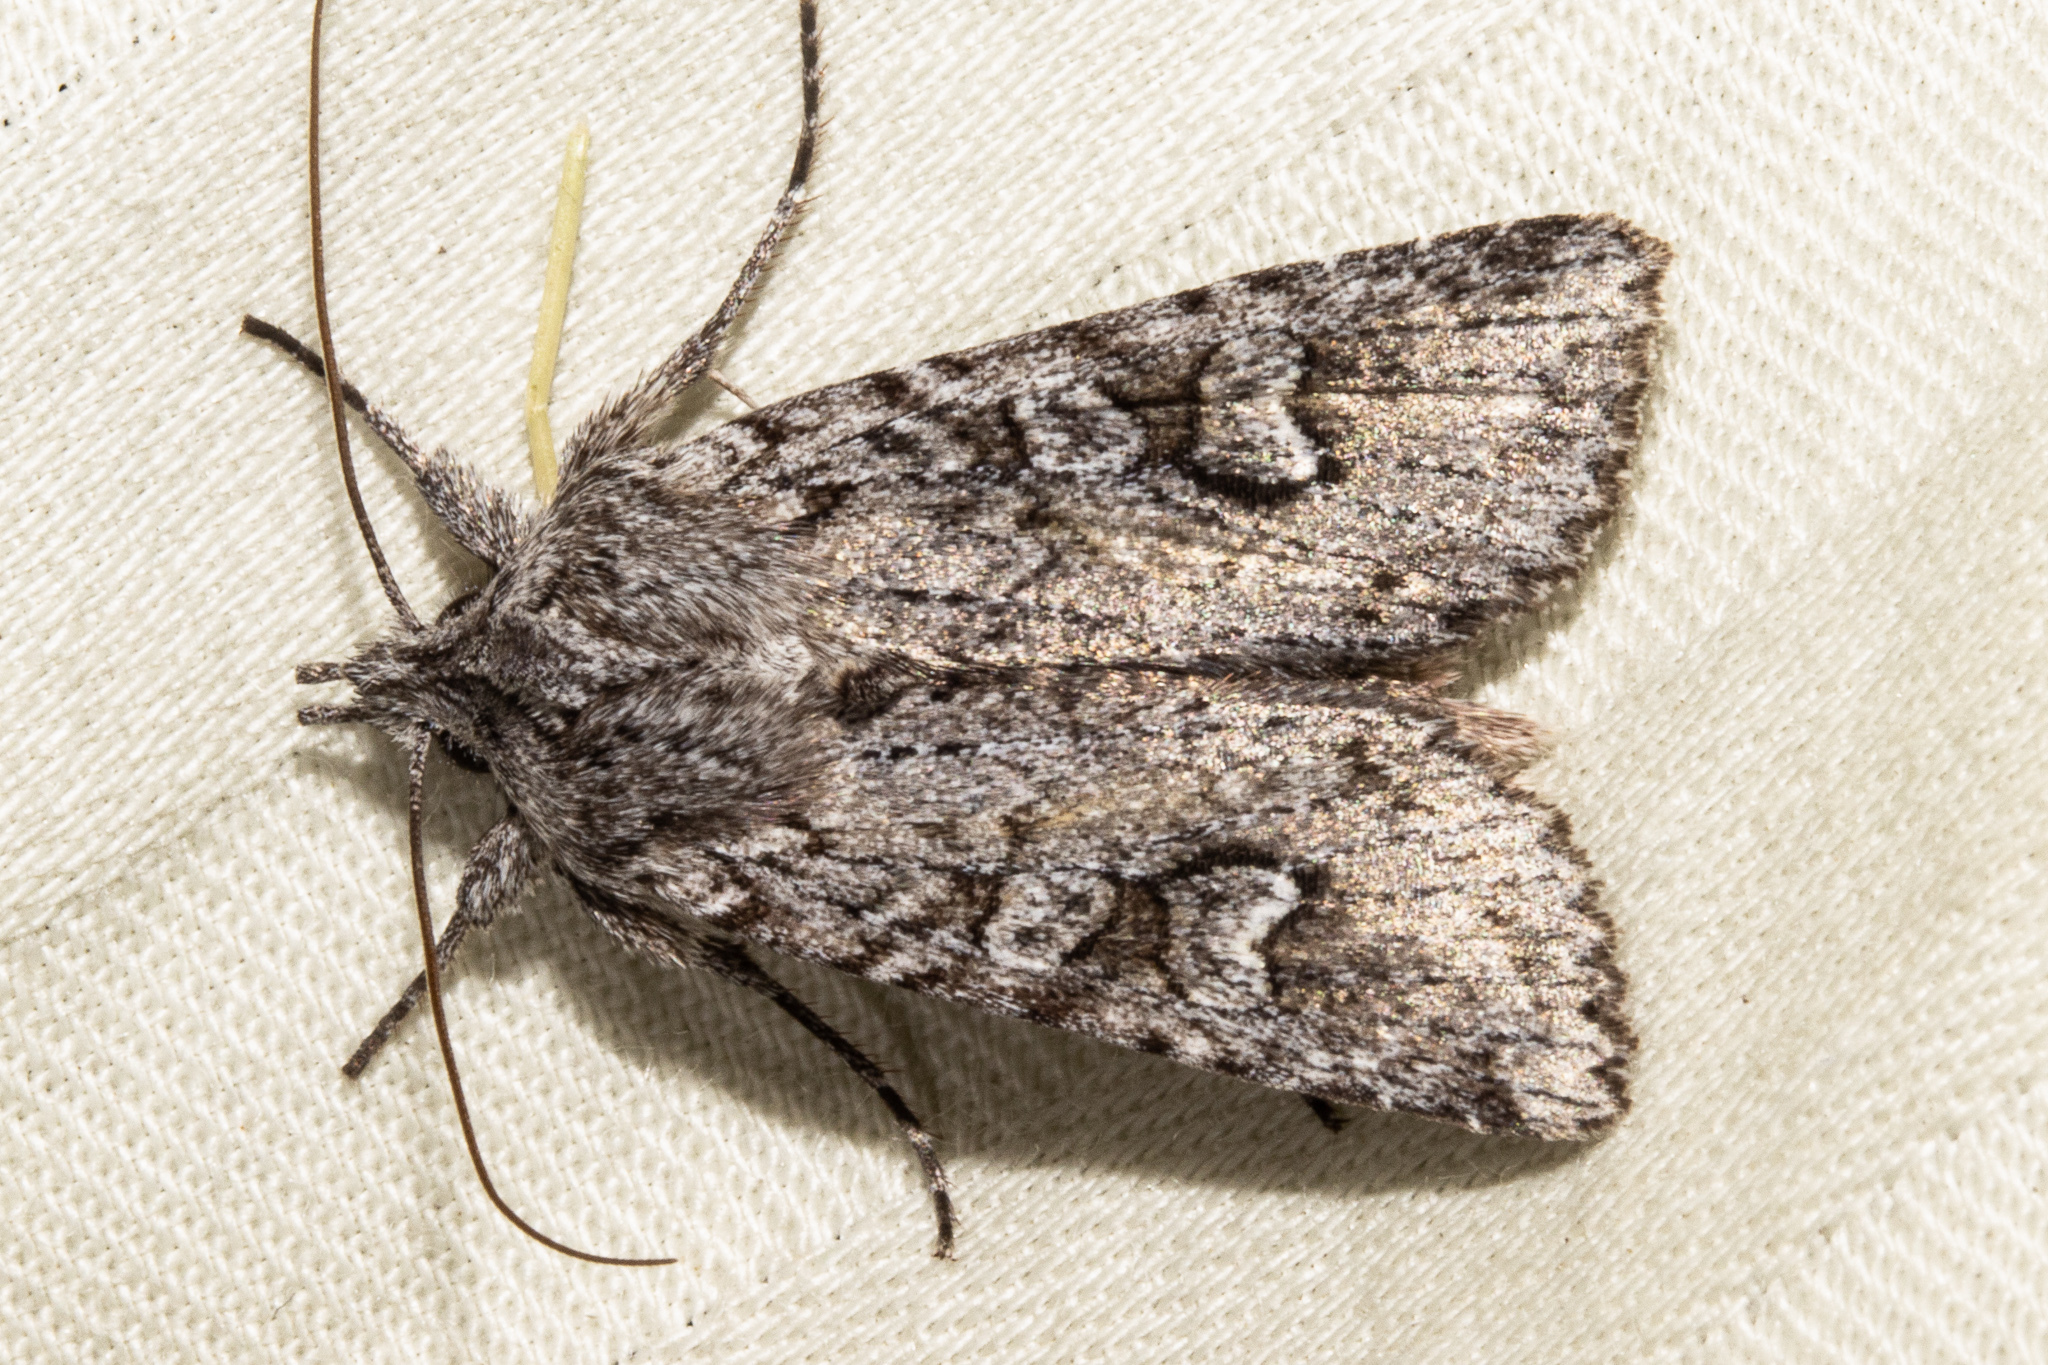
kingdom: Animalia
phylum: Arthropoda
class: Insecta
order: Lepidoptera
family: Noctuidae
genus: Physetica
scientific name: Physetica longstaffii
